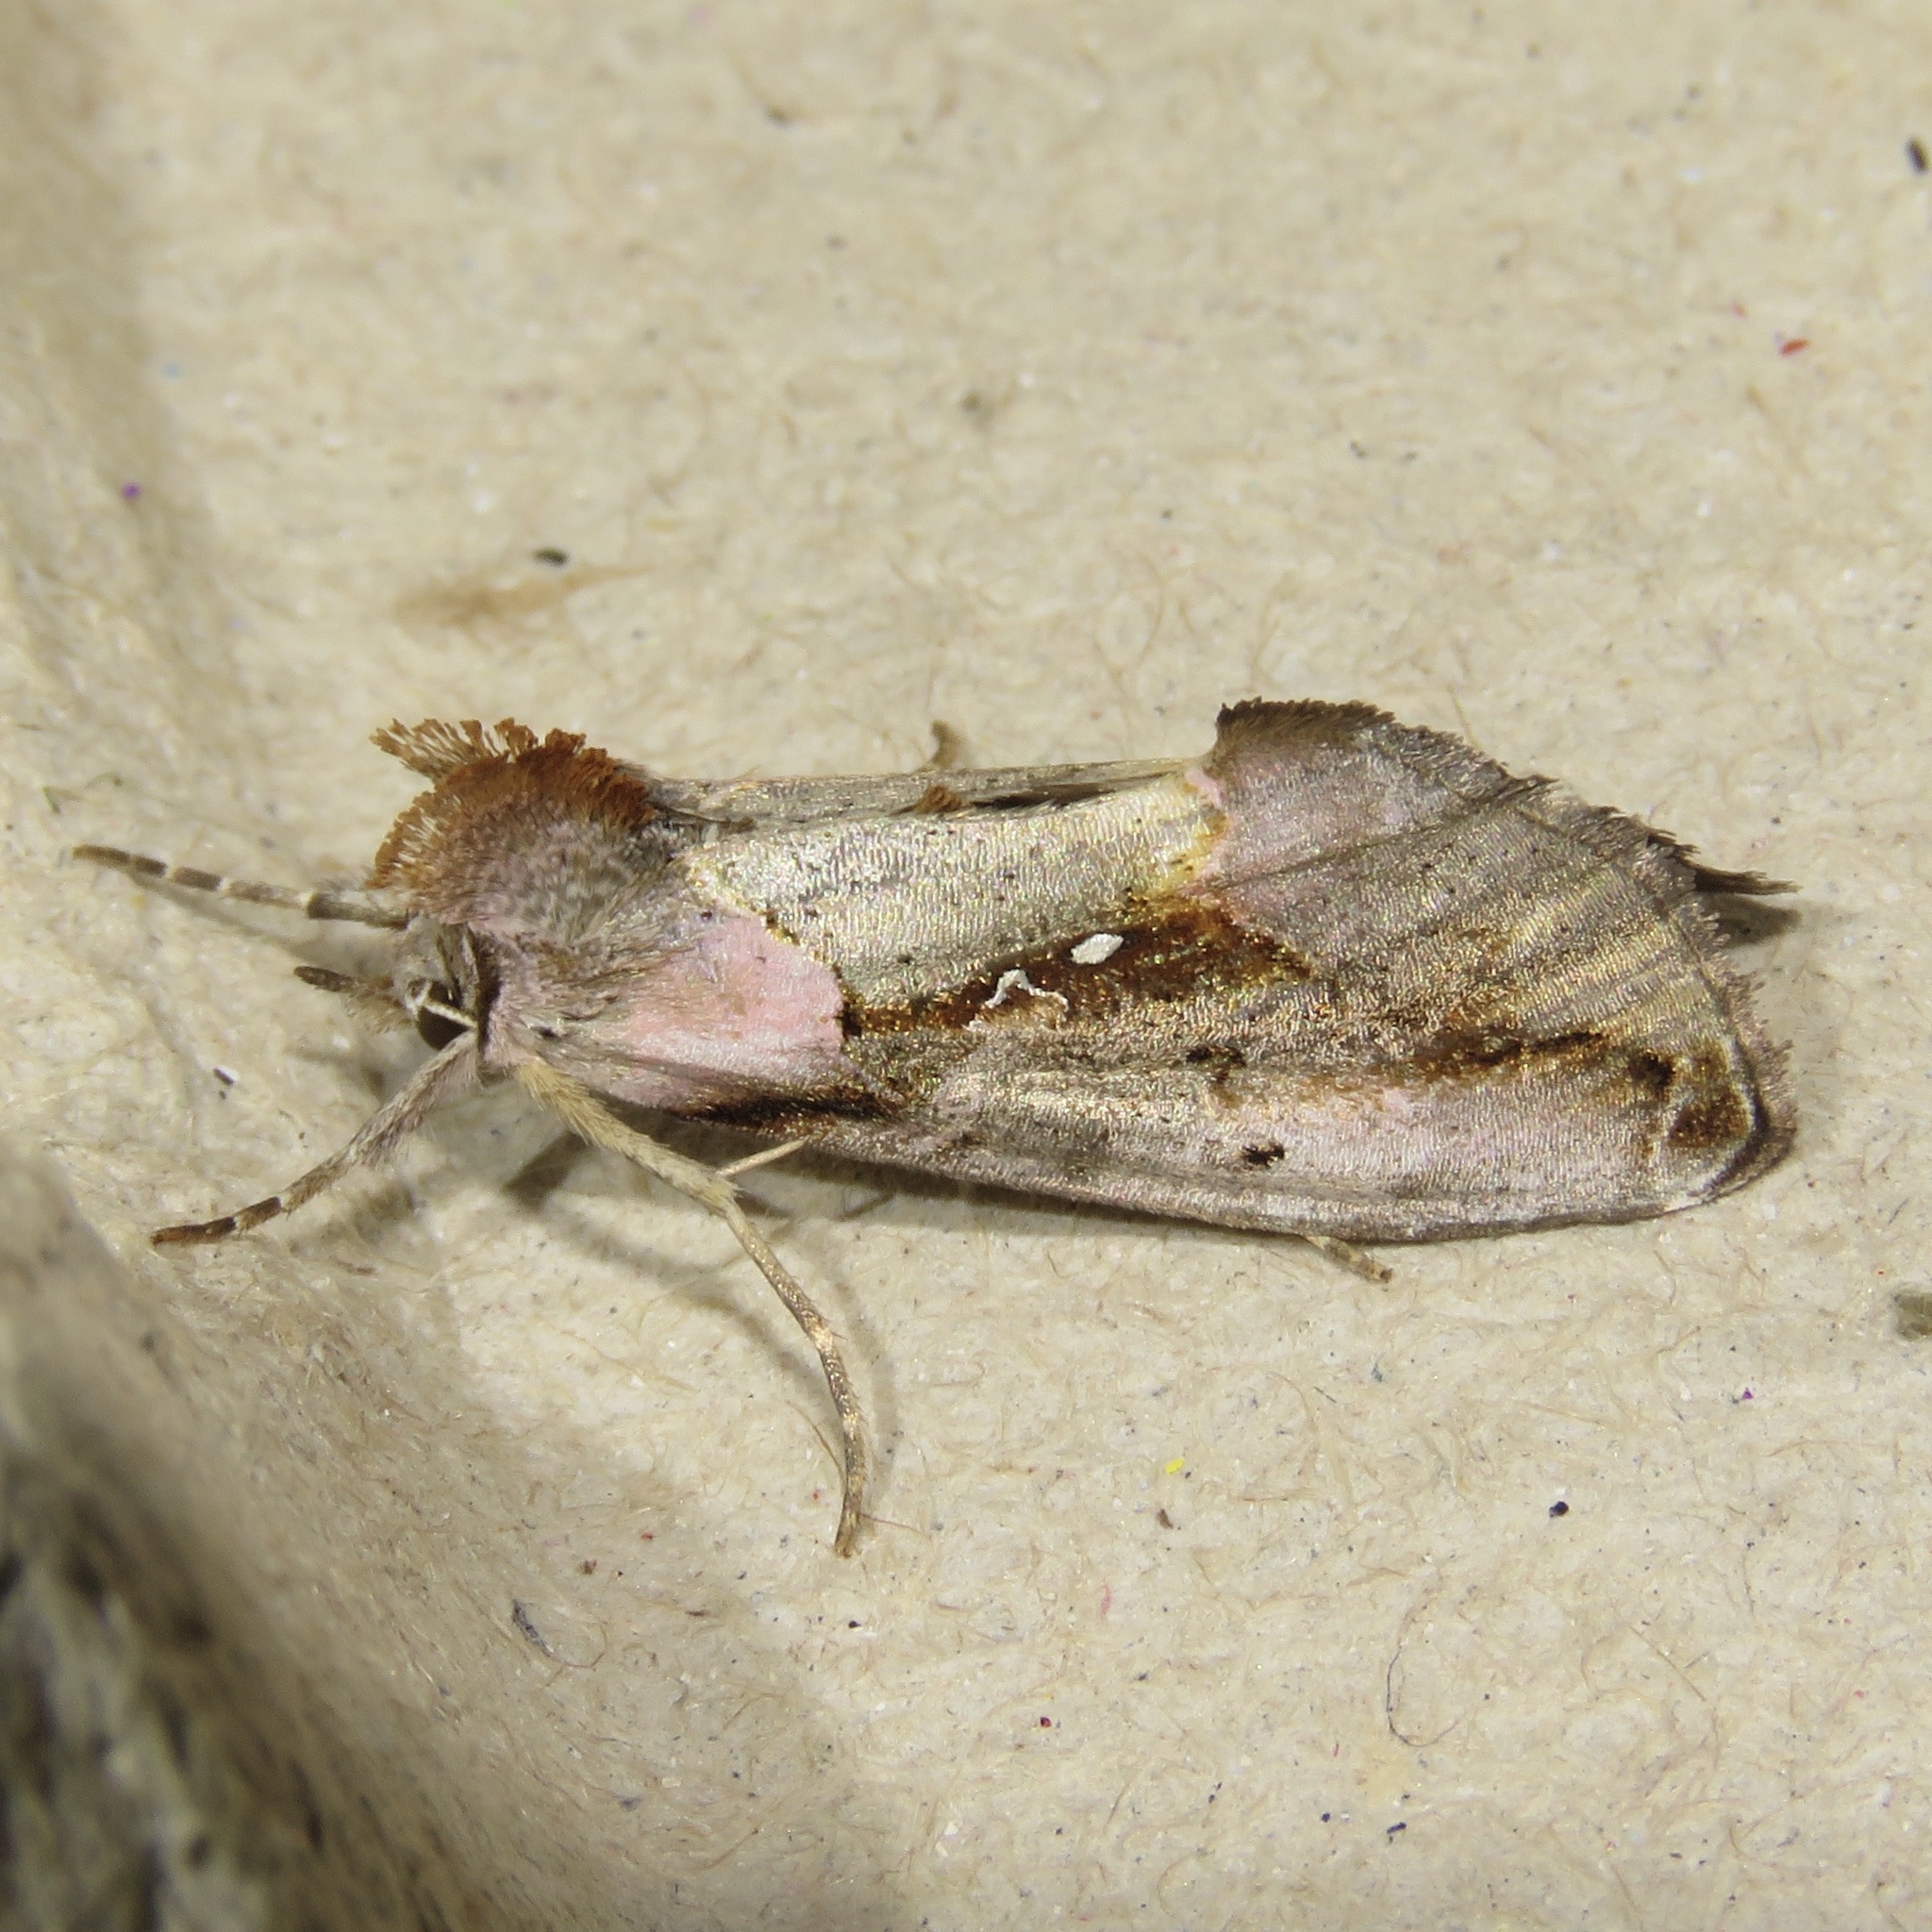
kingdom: Animalia
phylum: Arthropoda
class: Insecta
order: Lepidoptera
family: Noctuidae
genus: Eosphoropteryx
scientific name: Eosphoropteryx thyatyroides
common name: Pinkpatched looper moth
